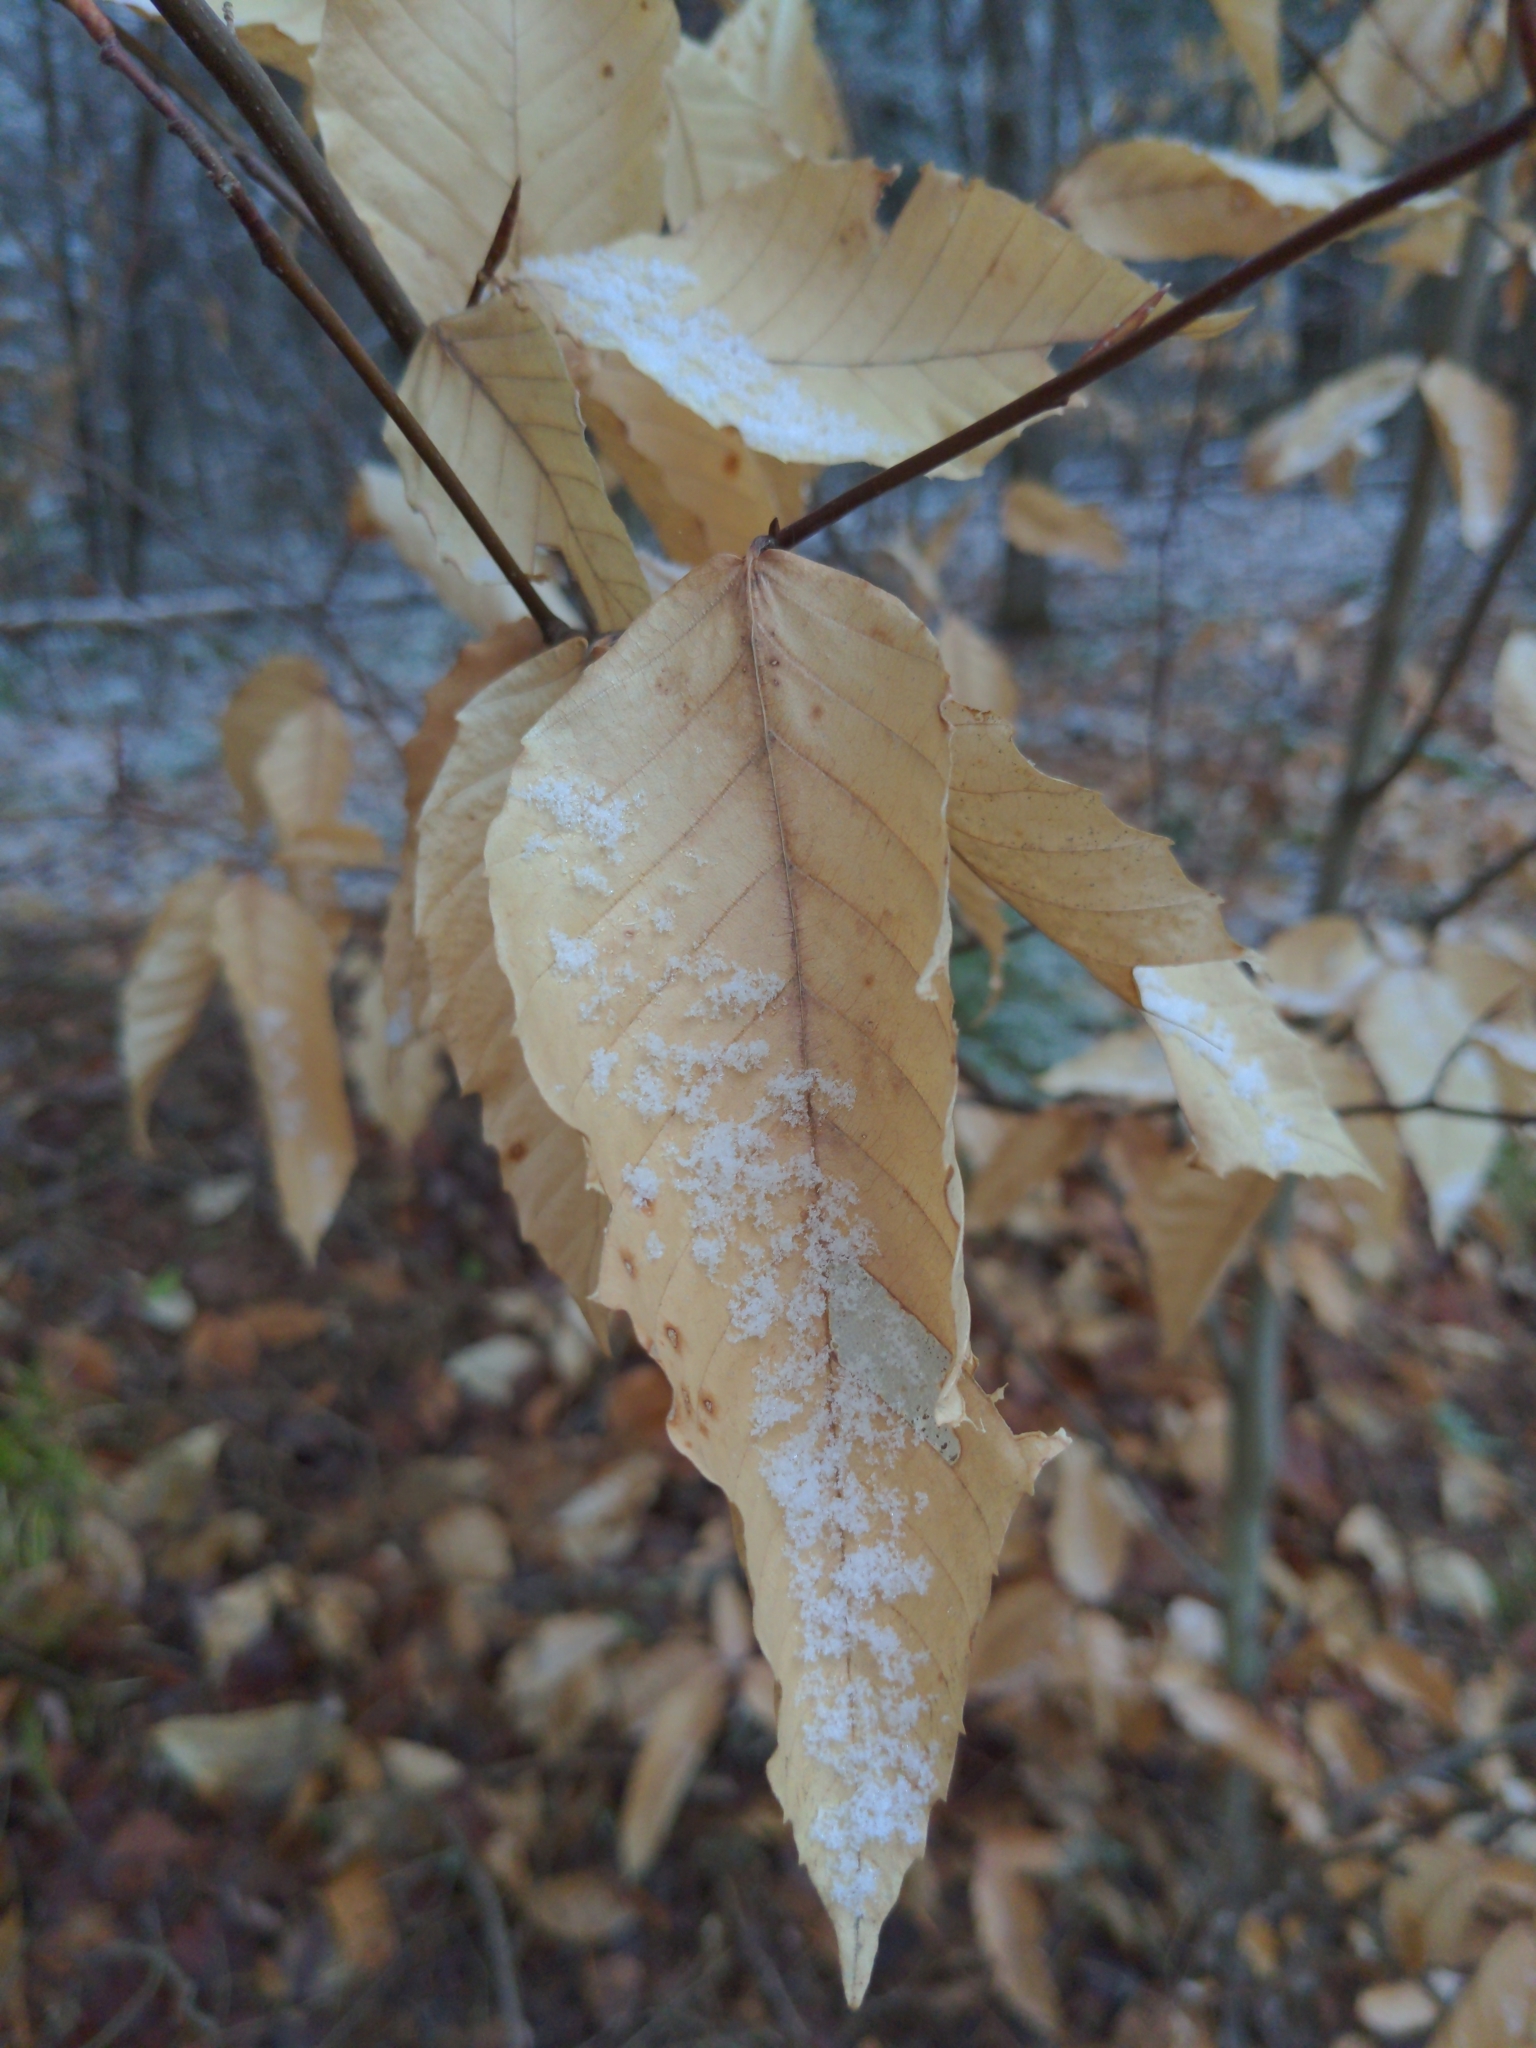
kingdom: Plantae
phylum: Tracheophyta
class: Magnoliopsida
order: Fagales
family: Fagaceae
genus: Fagus
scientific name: Fagus grandifolia
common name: American beech
